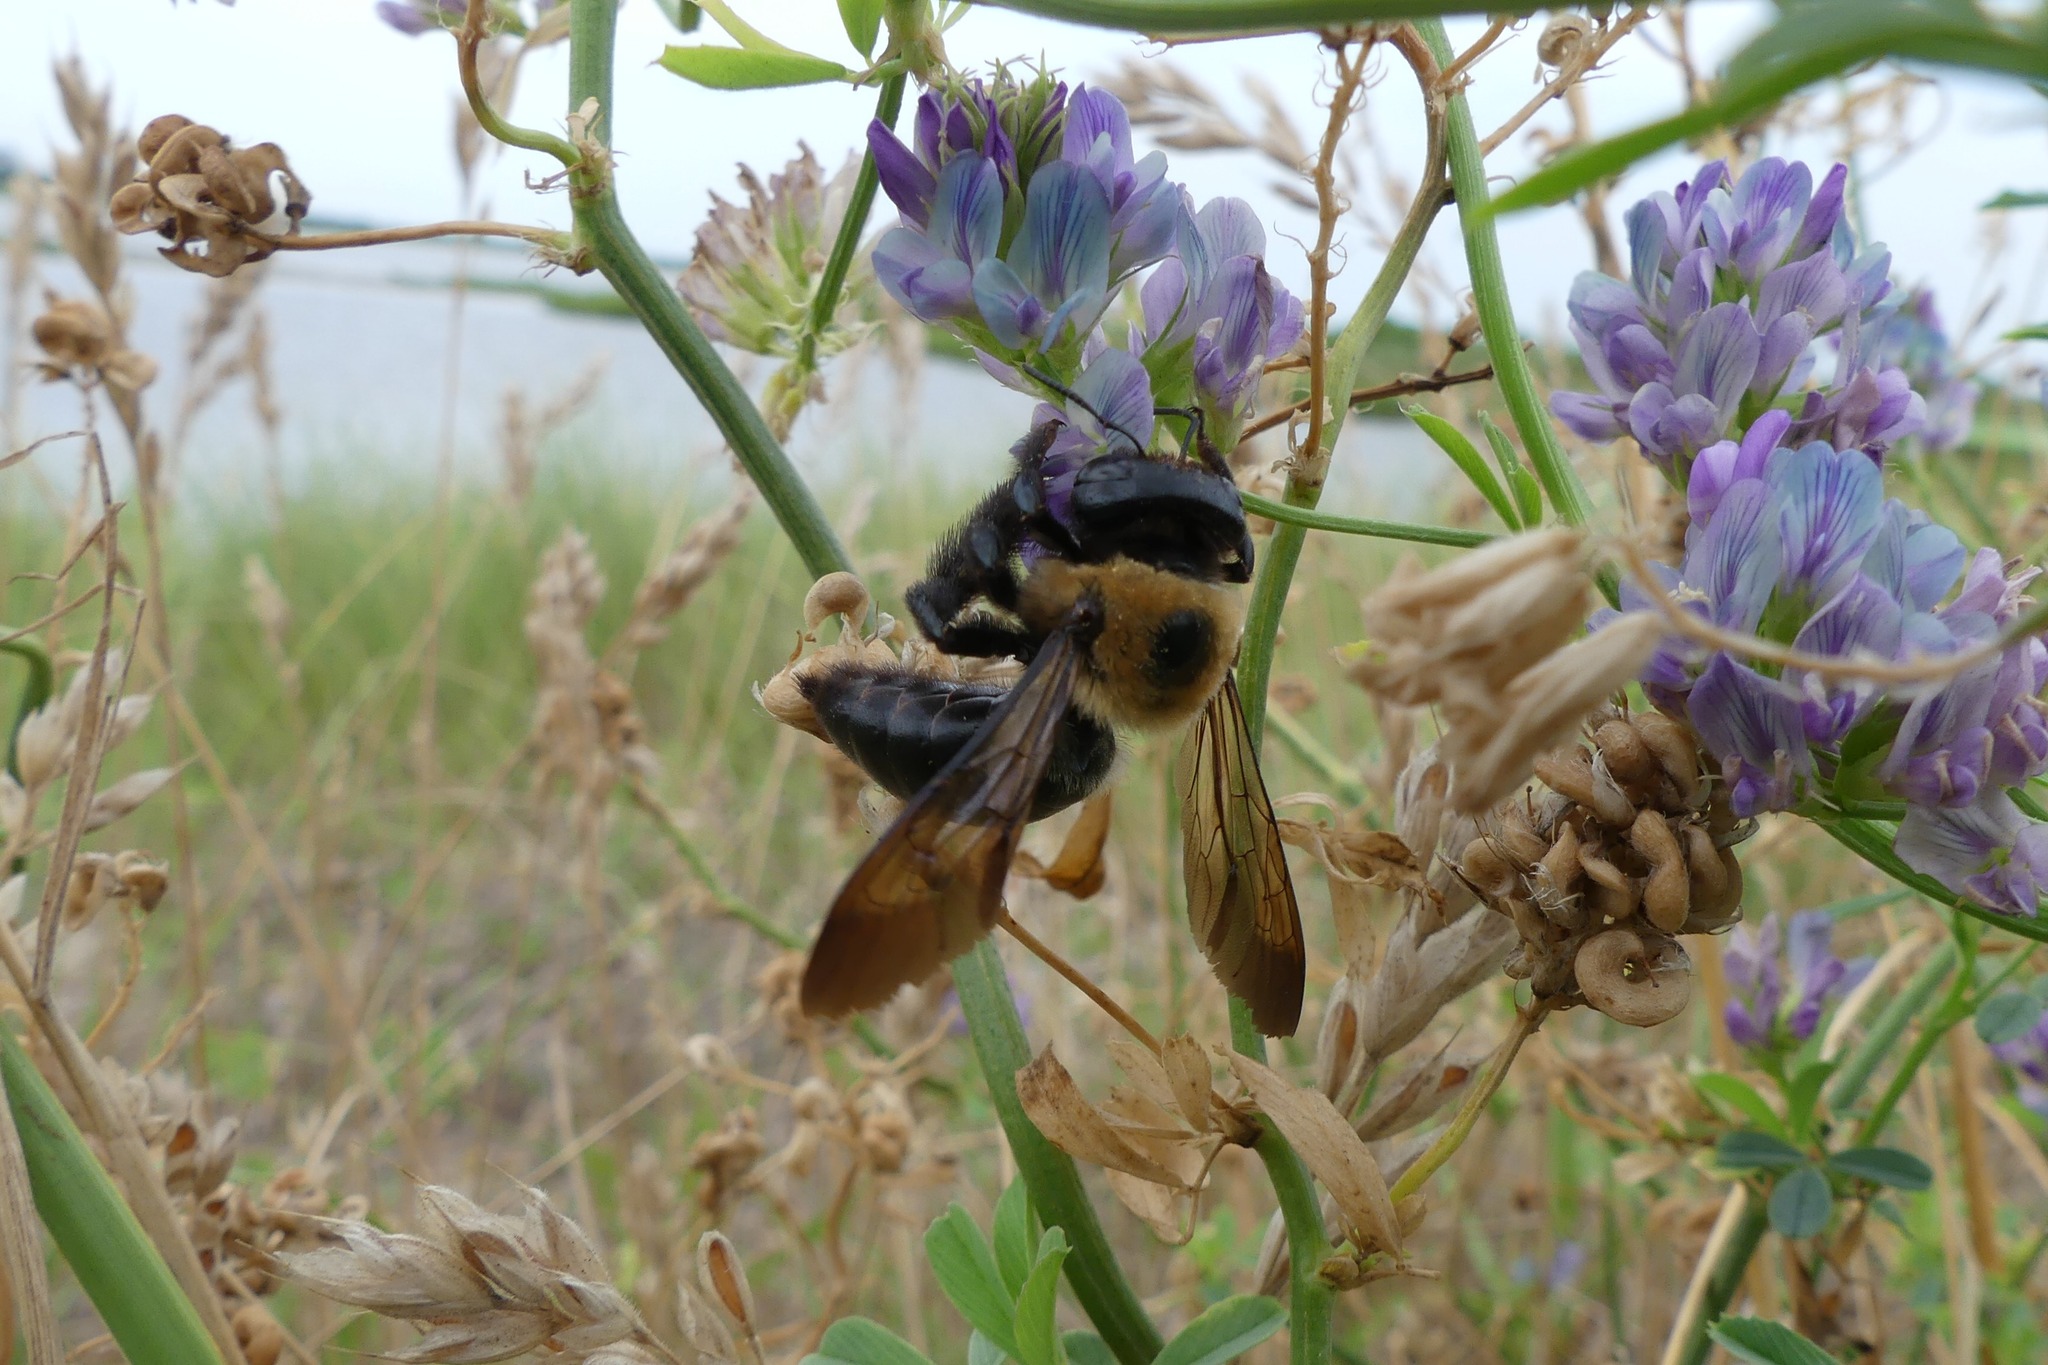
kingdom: Animalia
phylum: Arthropoda
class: Insecta
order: Hymenoptera
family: Apidae
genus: Xylocopa
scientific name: Xylocopa virginica
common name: Carpenter bee
